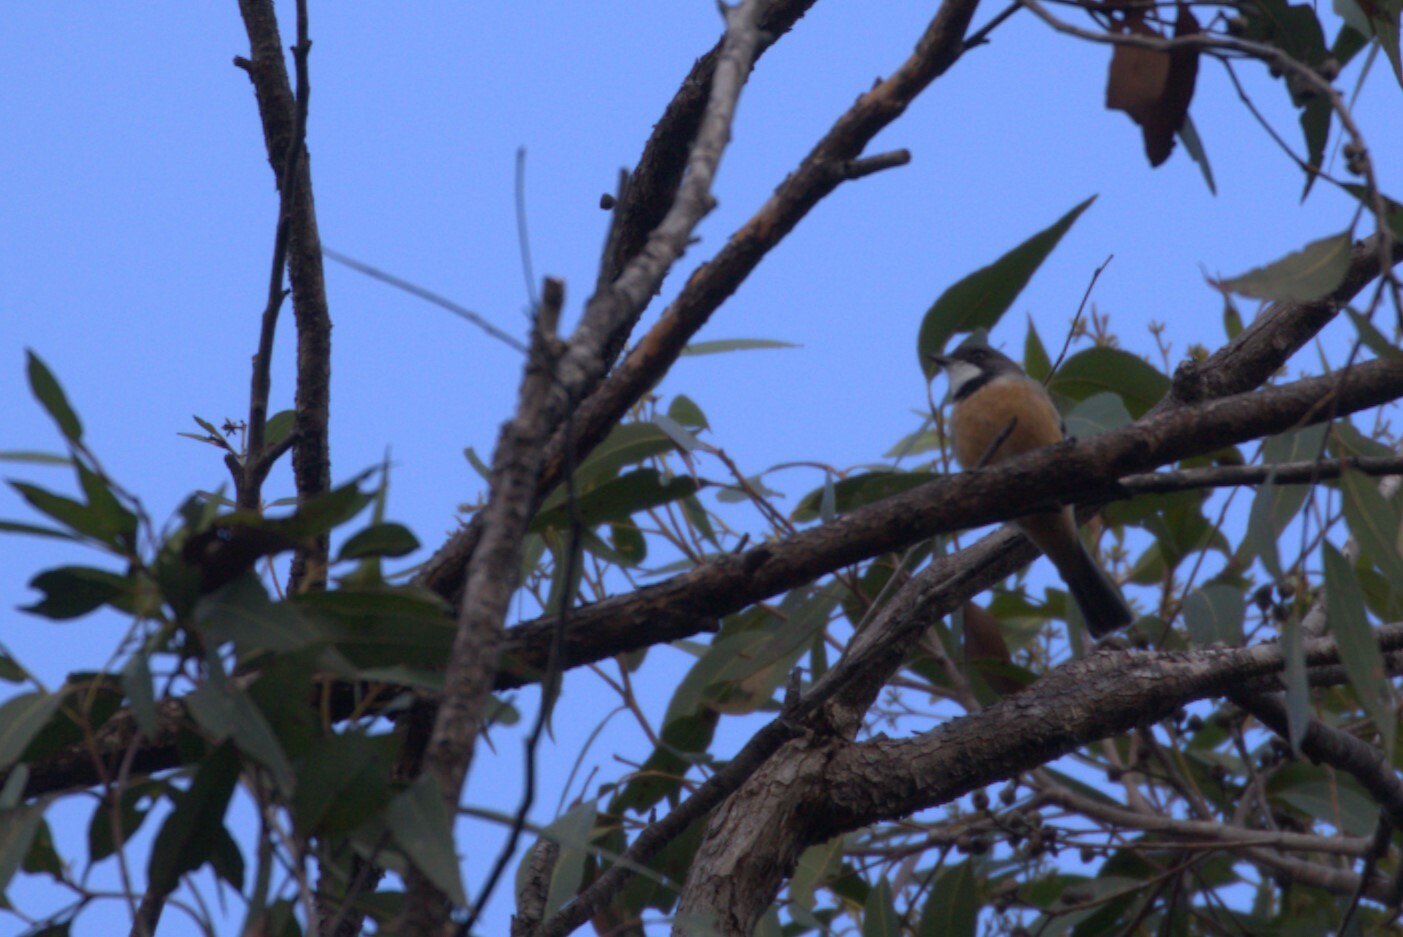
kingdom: Animalia
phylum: Chordata
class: Aves
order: Passeriformes
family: Pachycephalidae
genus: Pachycephala
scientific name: Pachycephala rufiventris
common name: Rufous whistler
